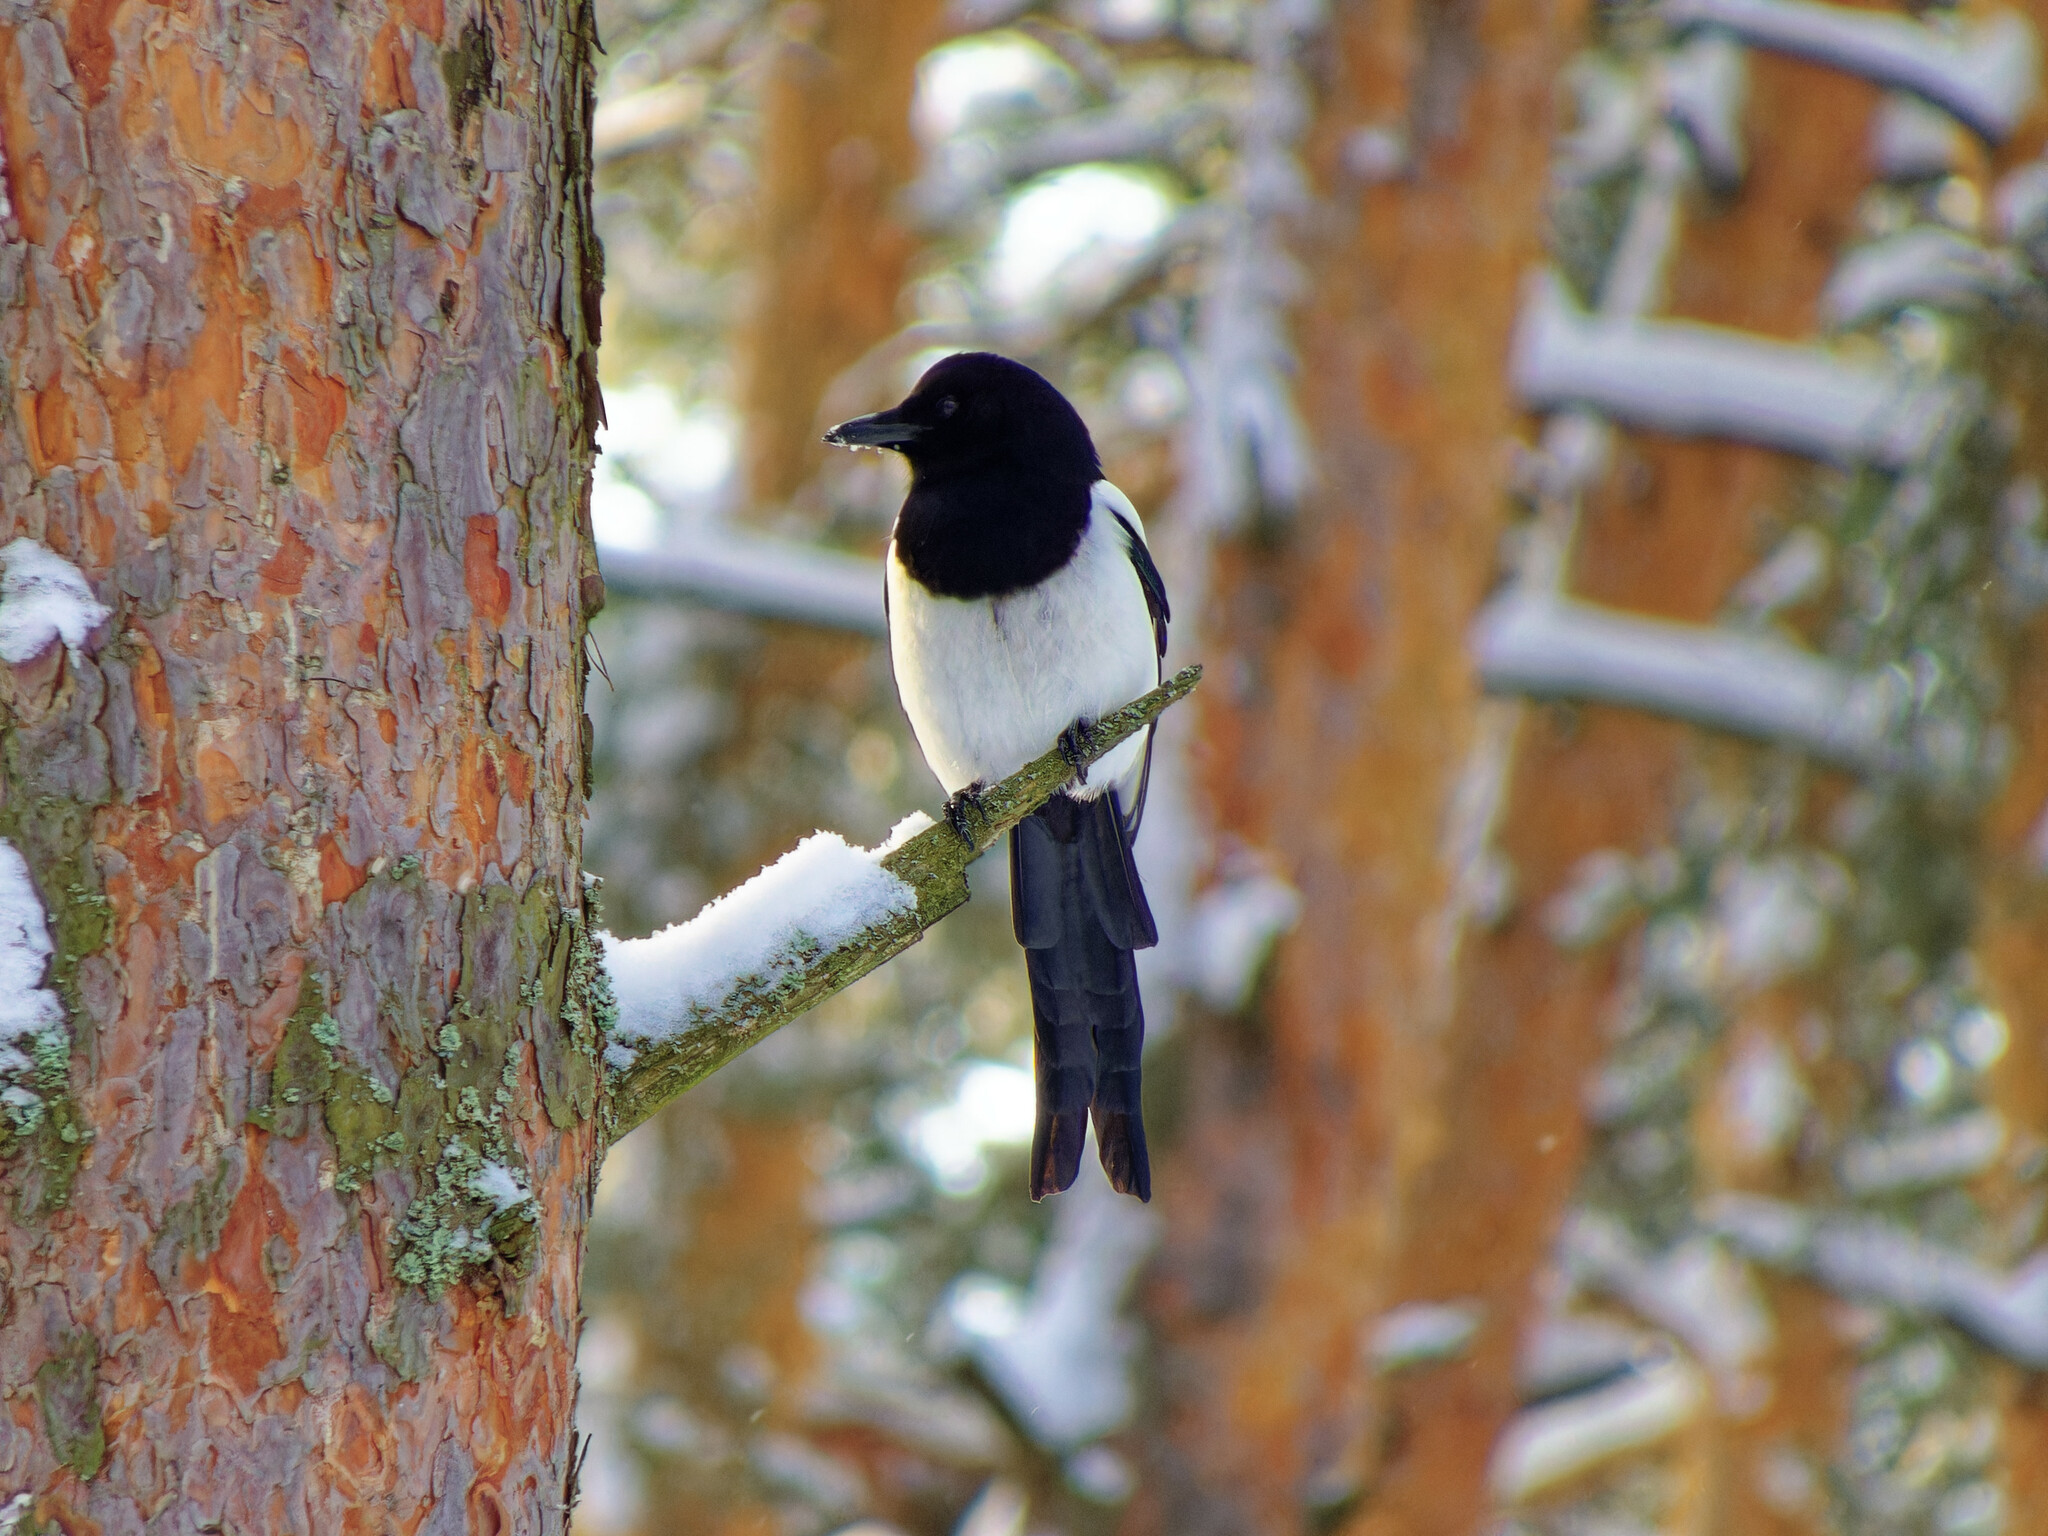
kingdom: Animalia
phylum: Chordata
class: Aves
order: Passeriformes
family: Corvidae
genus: Pica
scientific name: Pica pica
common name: Eurasian magpie
